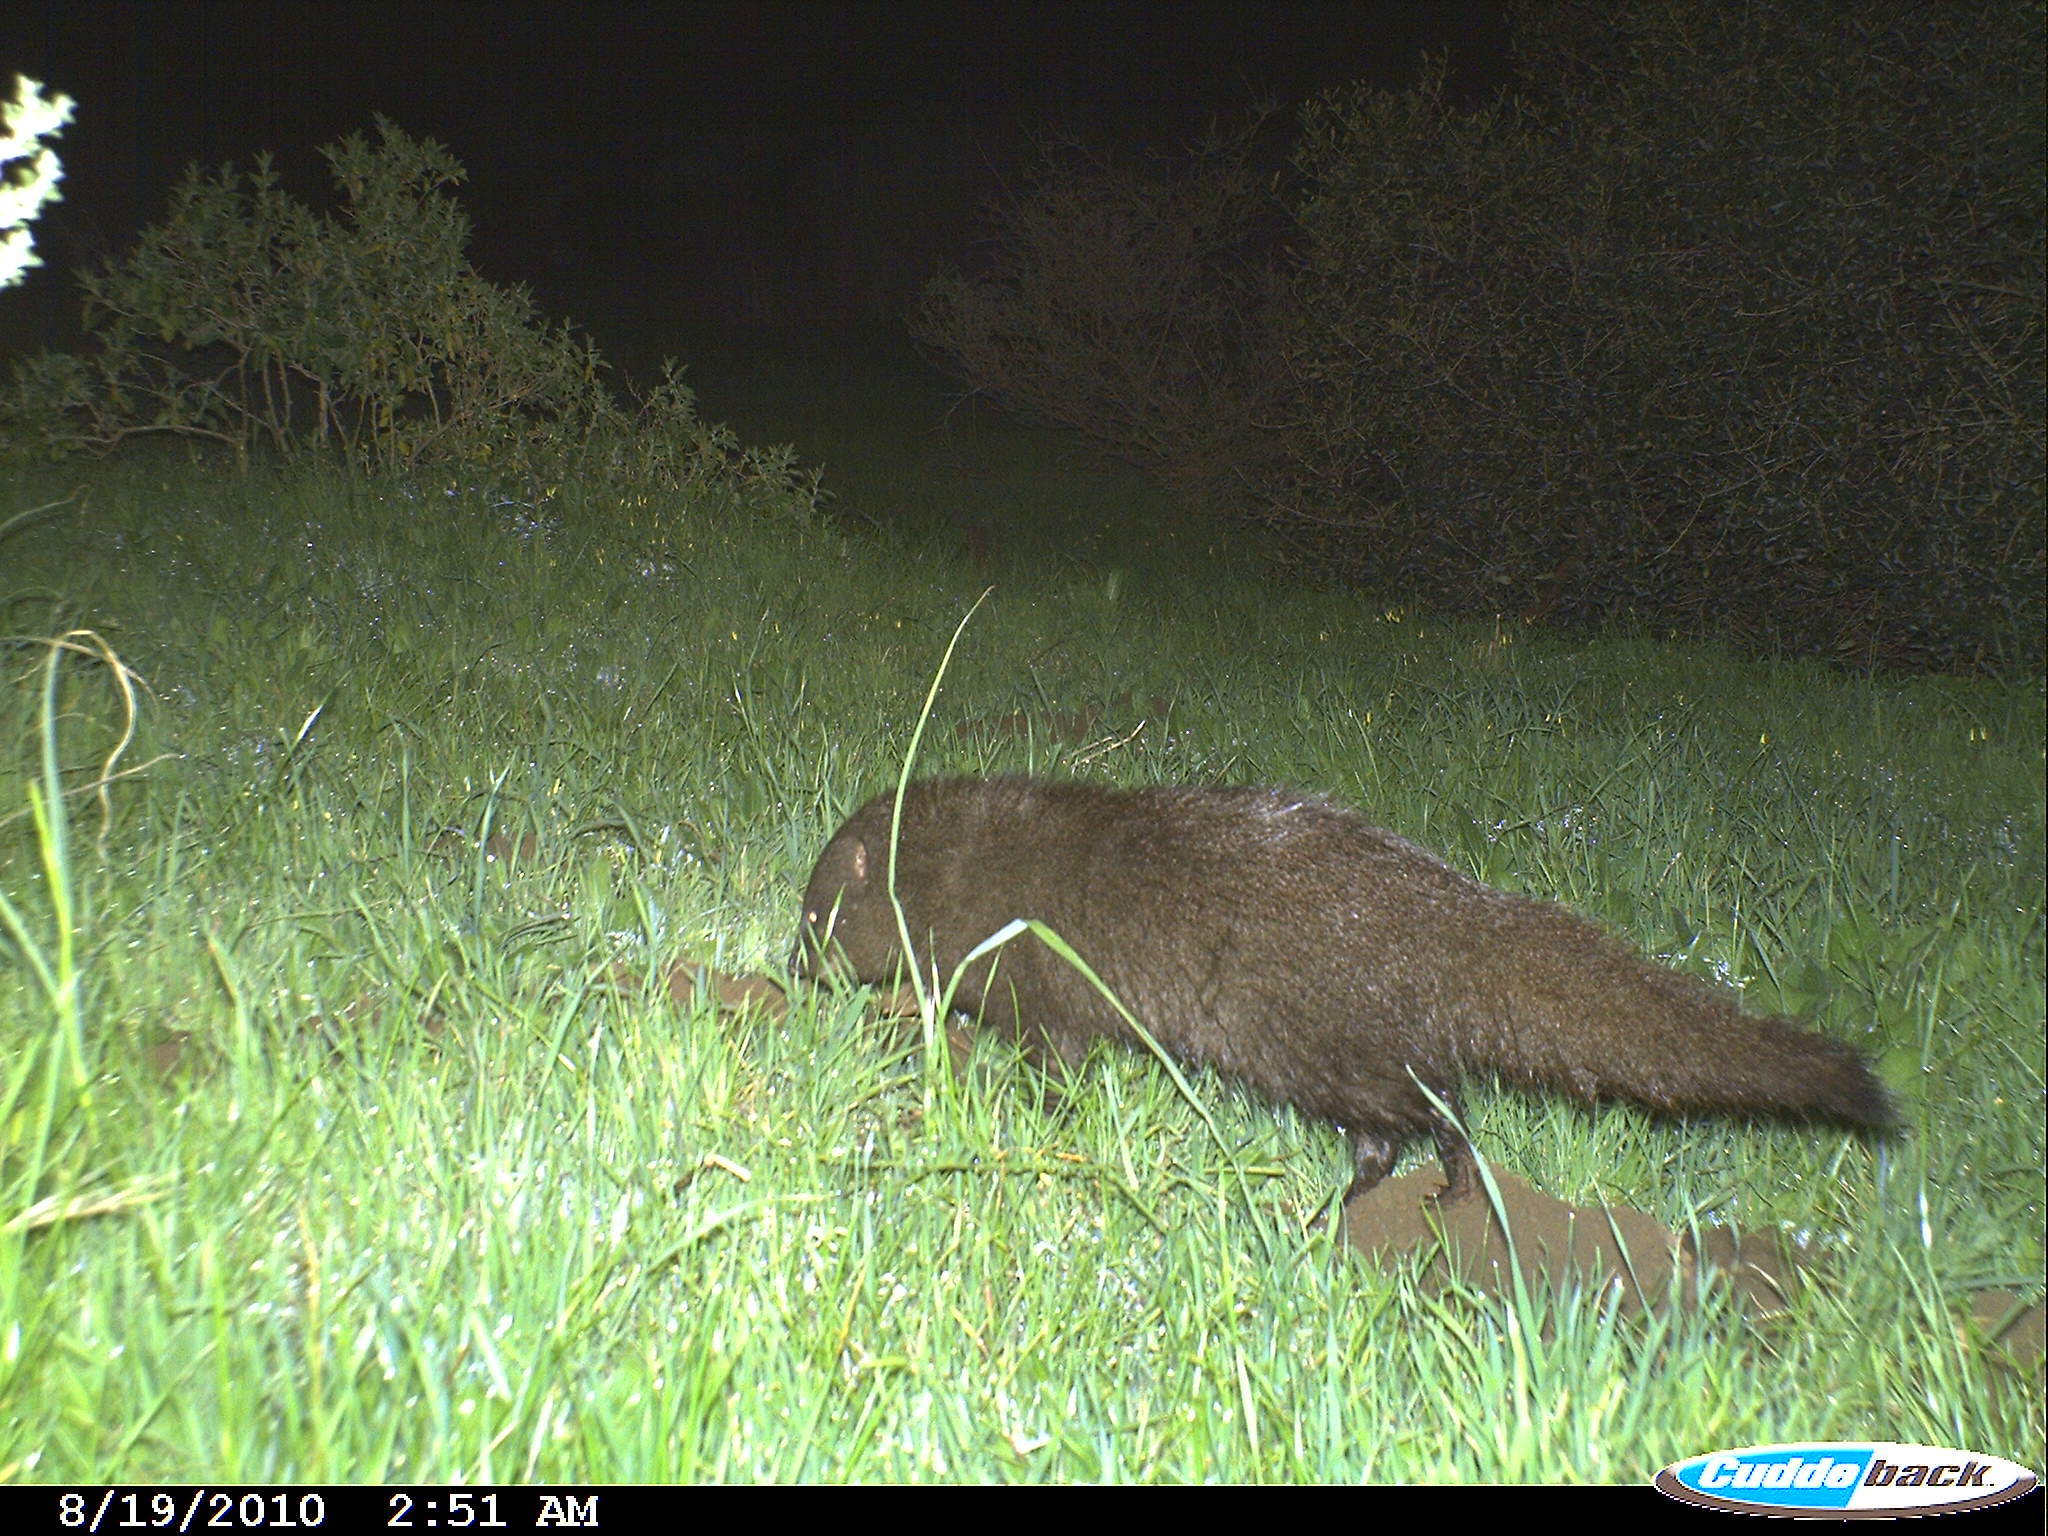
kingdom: Animalia
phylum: Chordata
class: Mammalia
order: Carnivora
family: Herpestidae
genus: Atilax
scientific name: Atilax paludinosus
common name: Marsh mongoose
